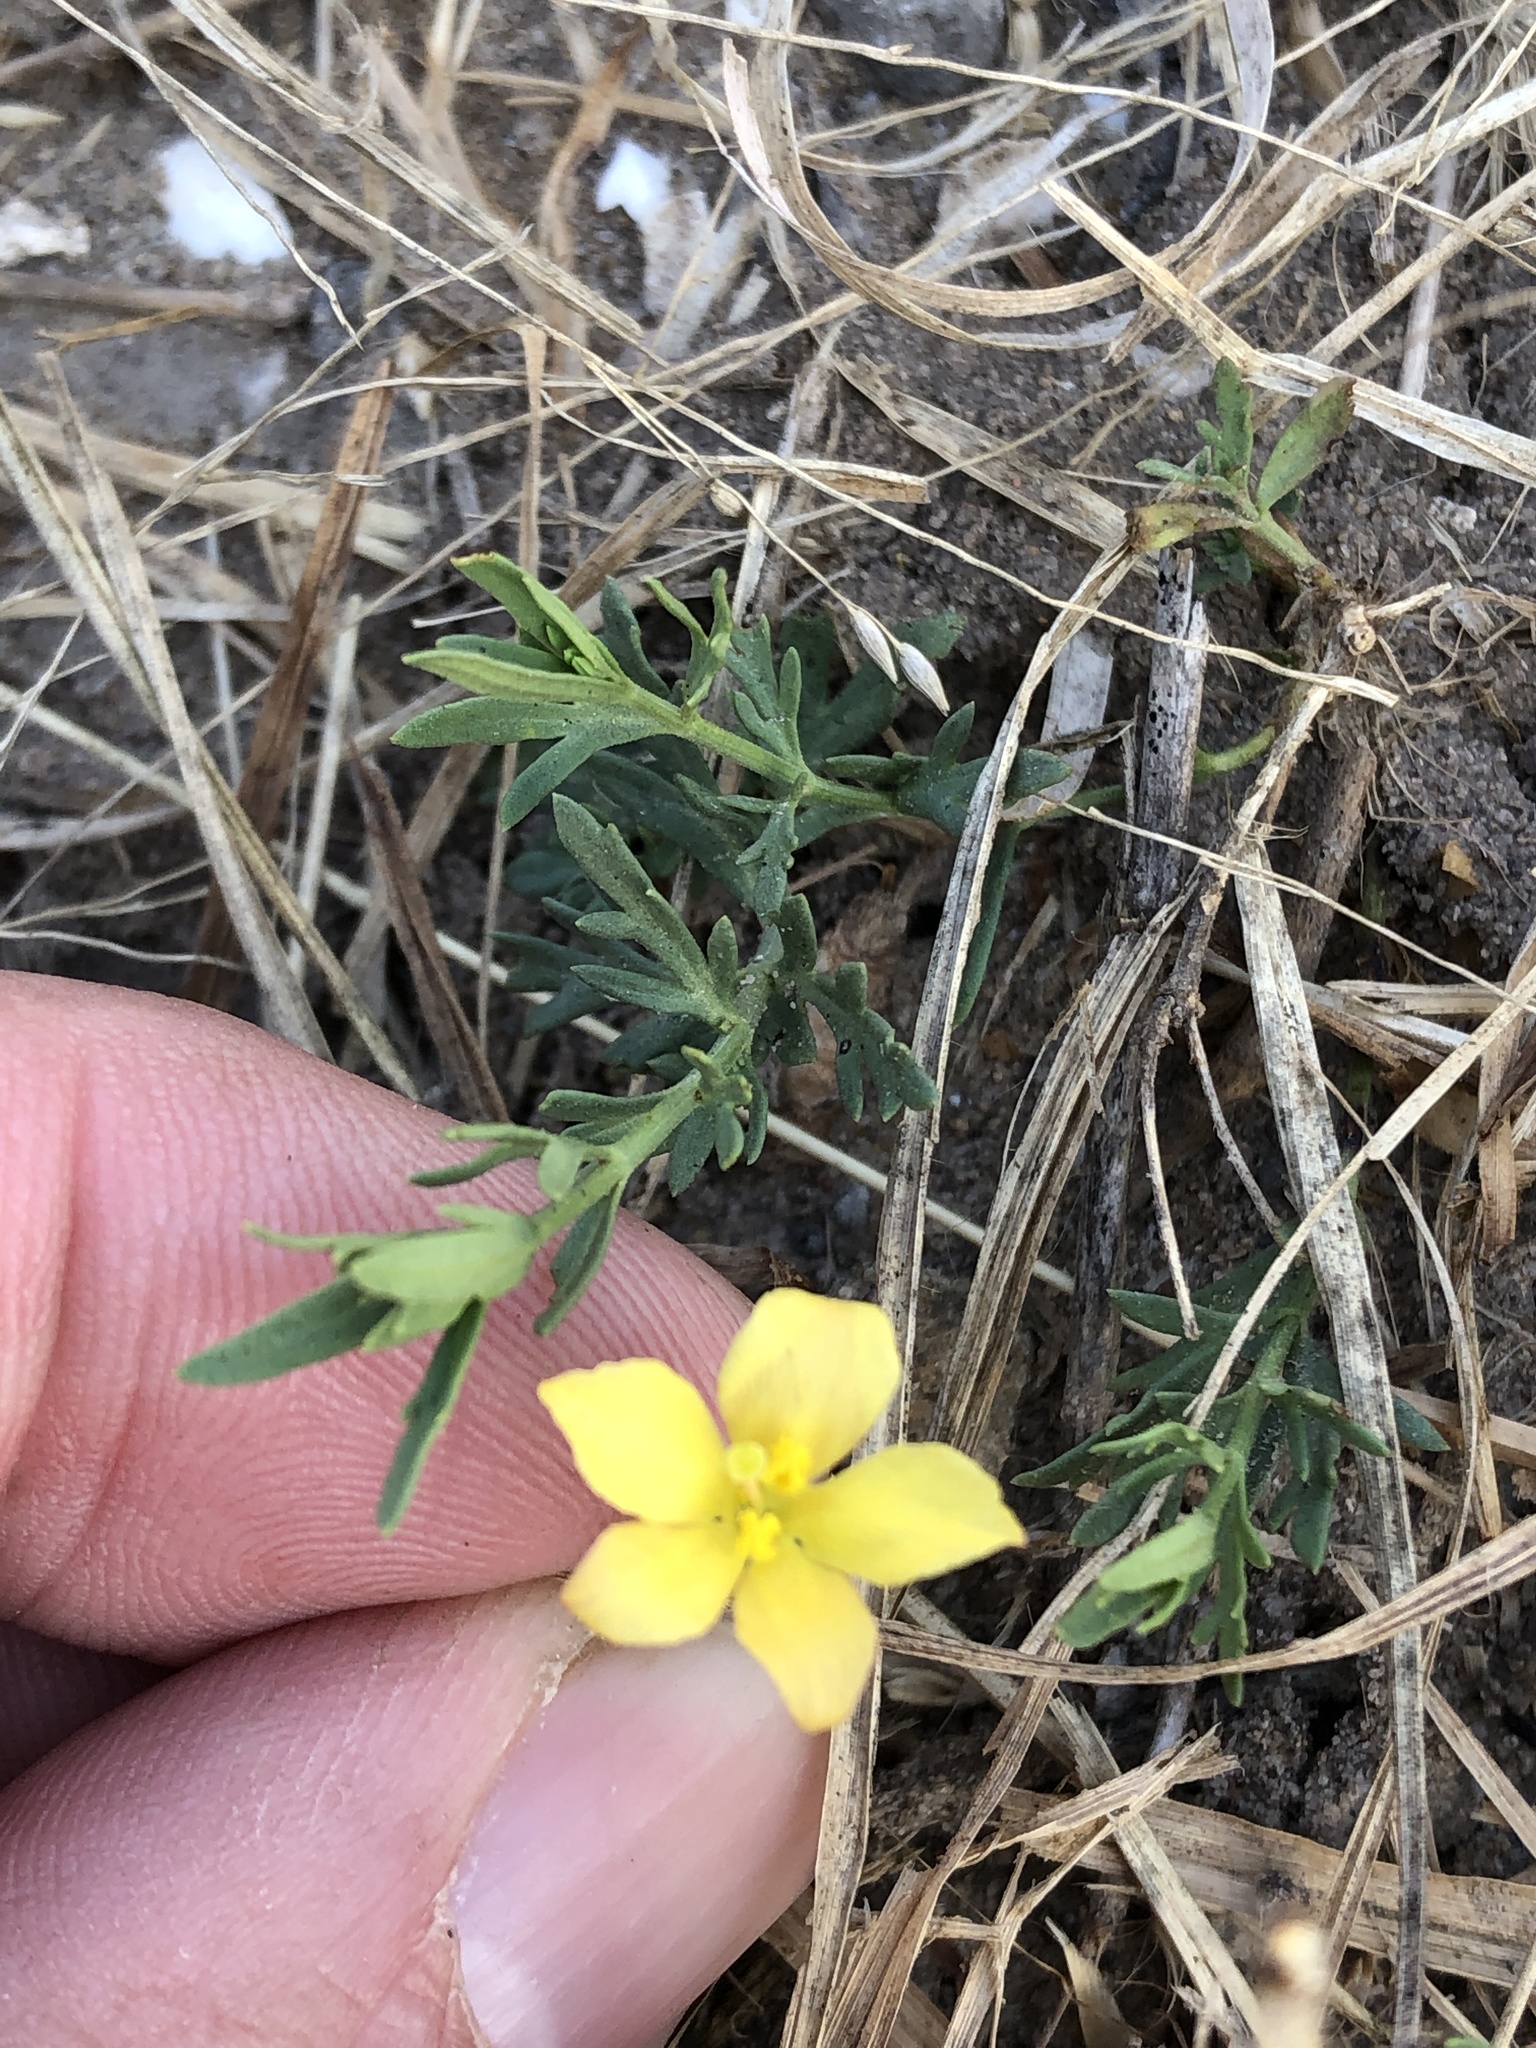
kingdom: Plantae
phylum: Tracheophyta
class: Magnoliopsida
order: Lamiales
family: Oleaceae
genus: Menodora
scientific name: Menodora heterophylla
